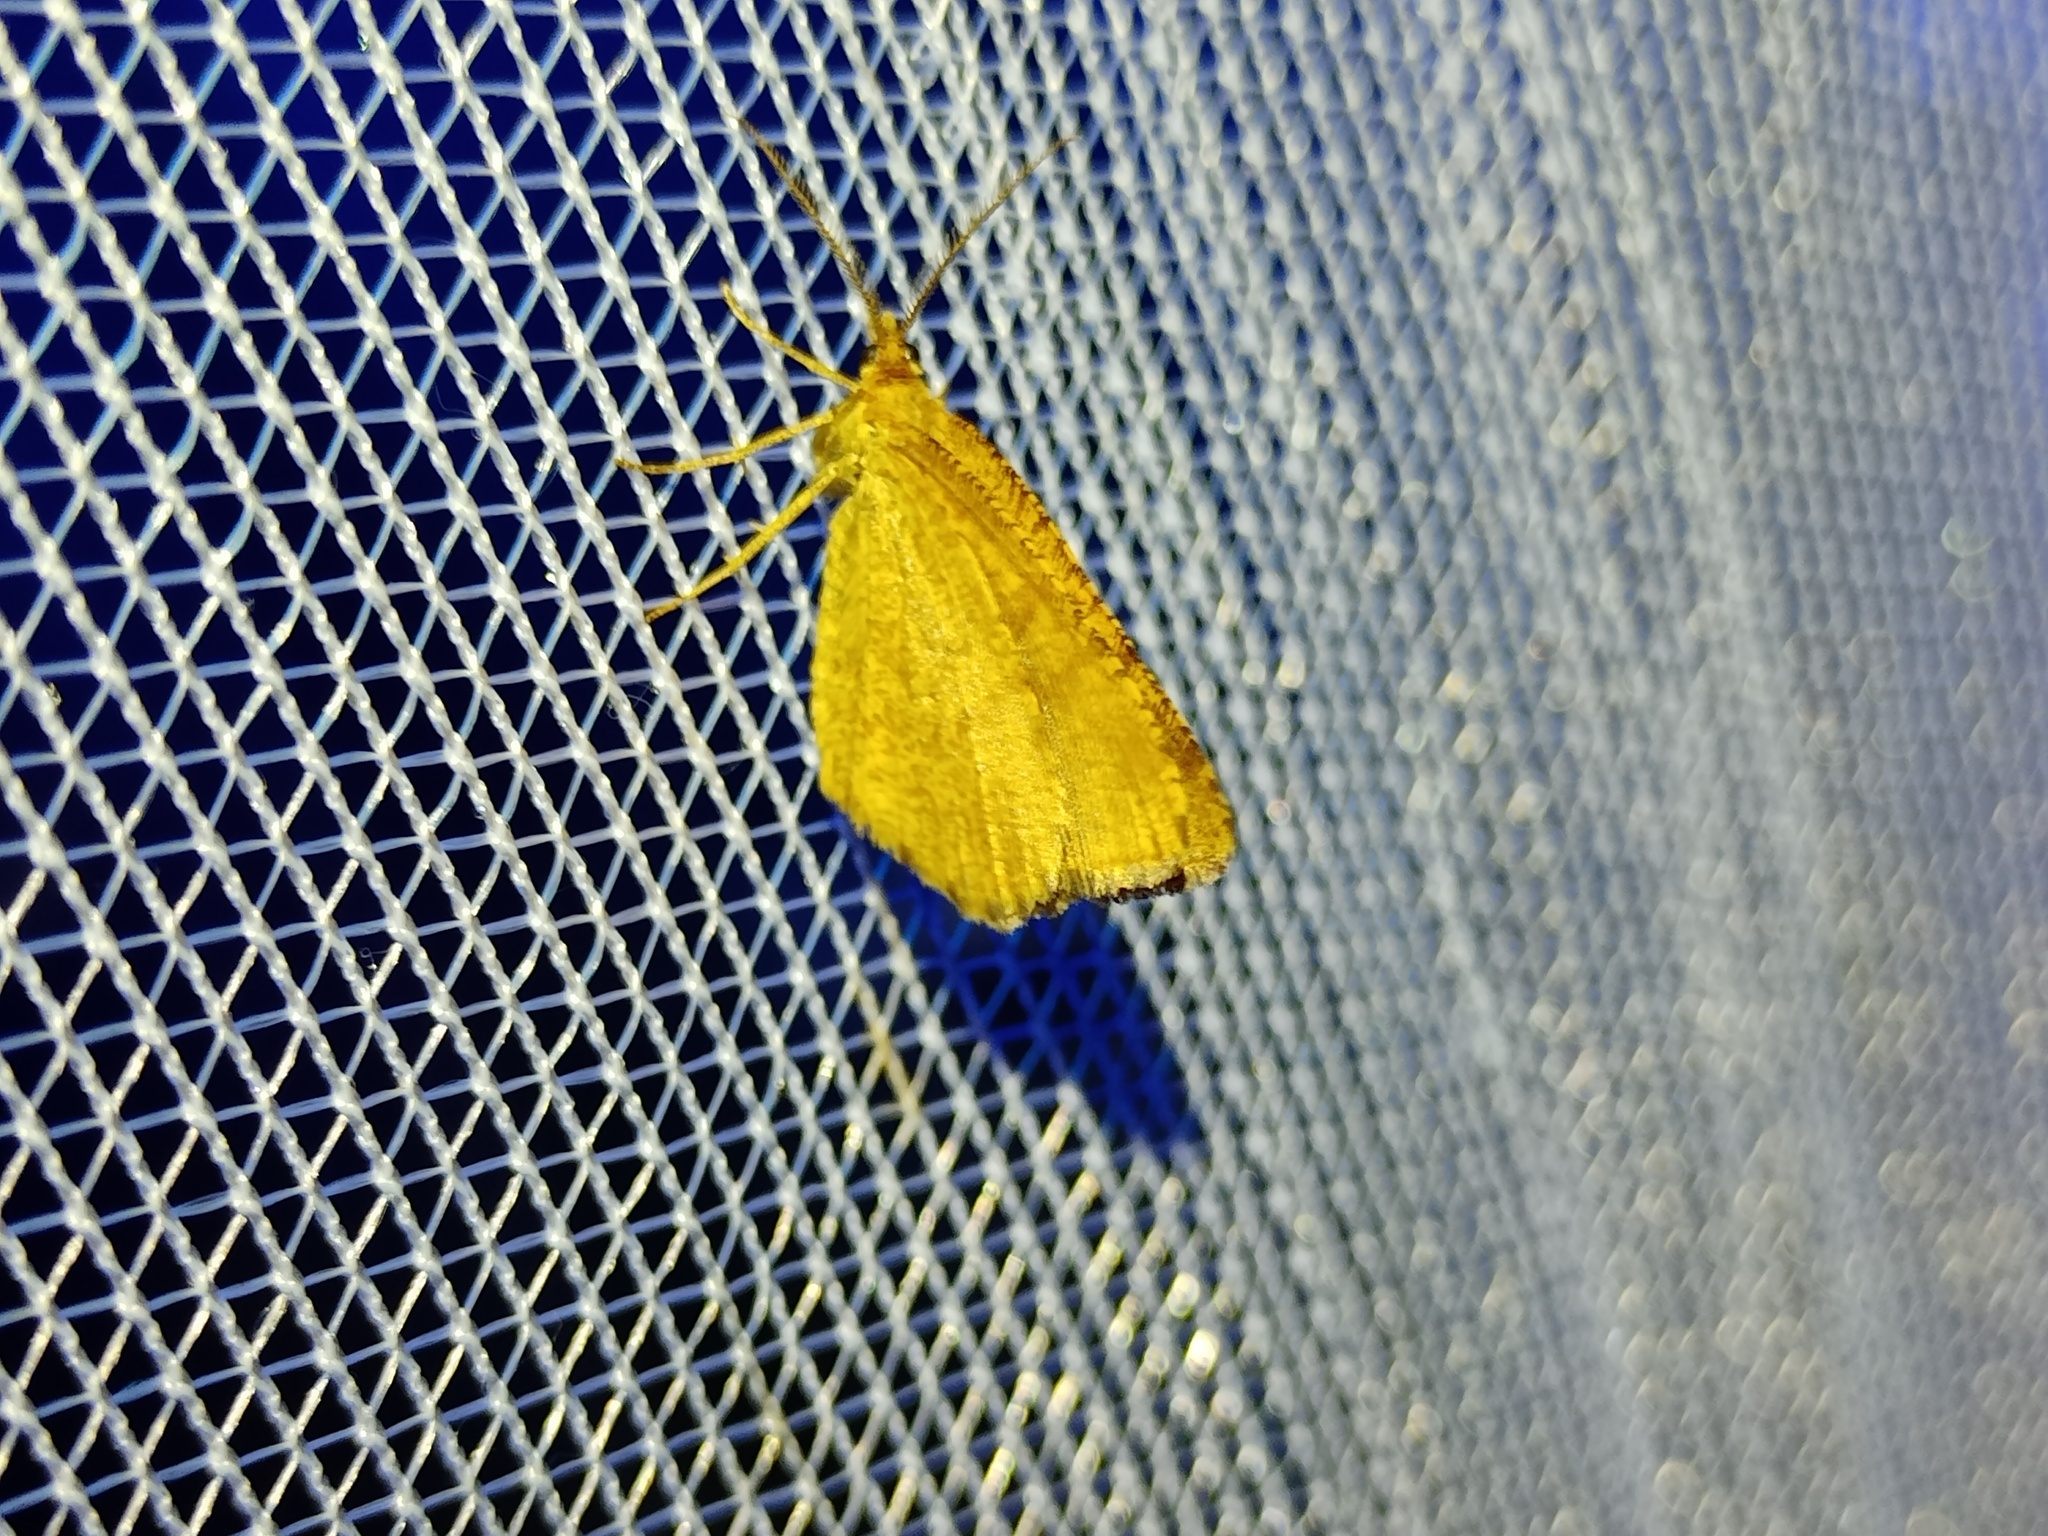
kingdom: Animalia
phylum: Arthropoda
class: Insecta
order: Lepidoptera
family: Geometridae
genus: Macaria
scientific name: Macaria brunneata
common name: Rannoch looper
